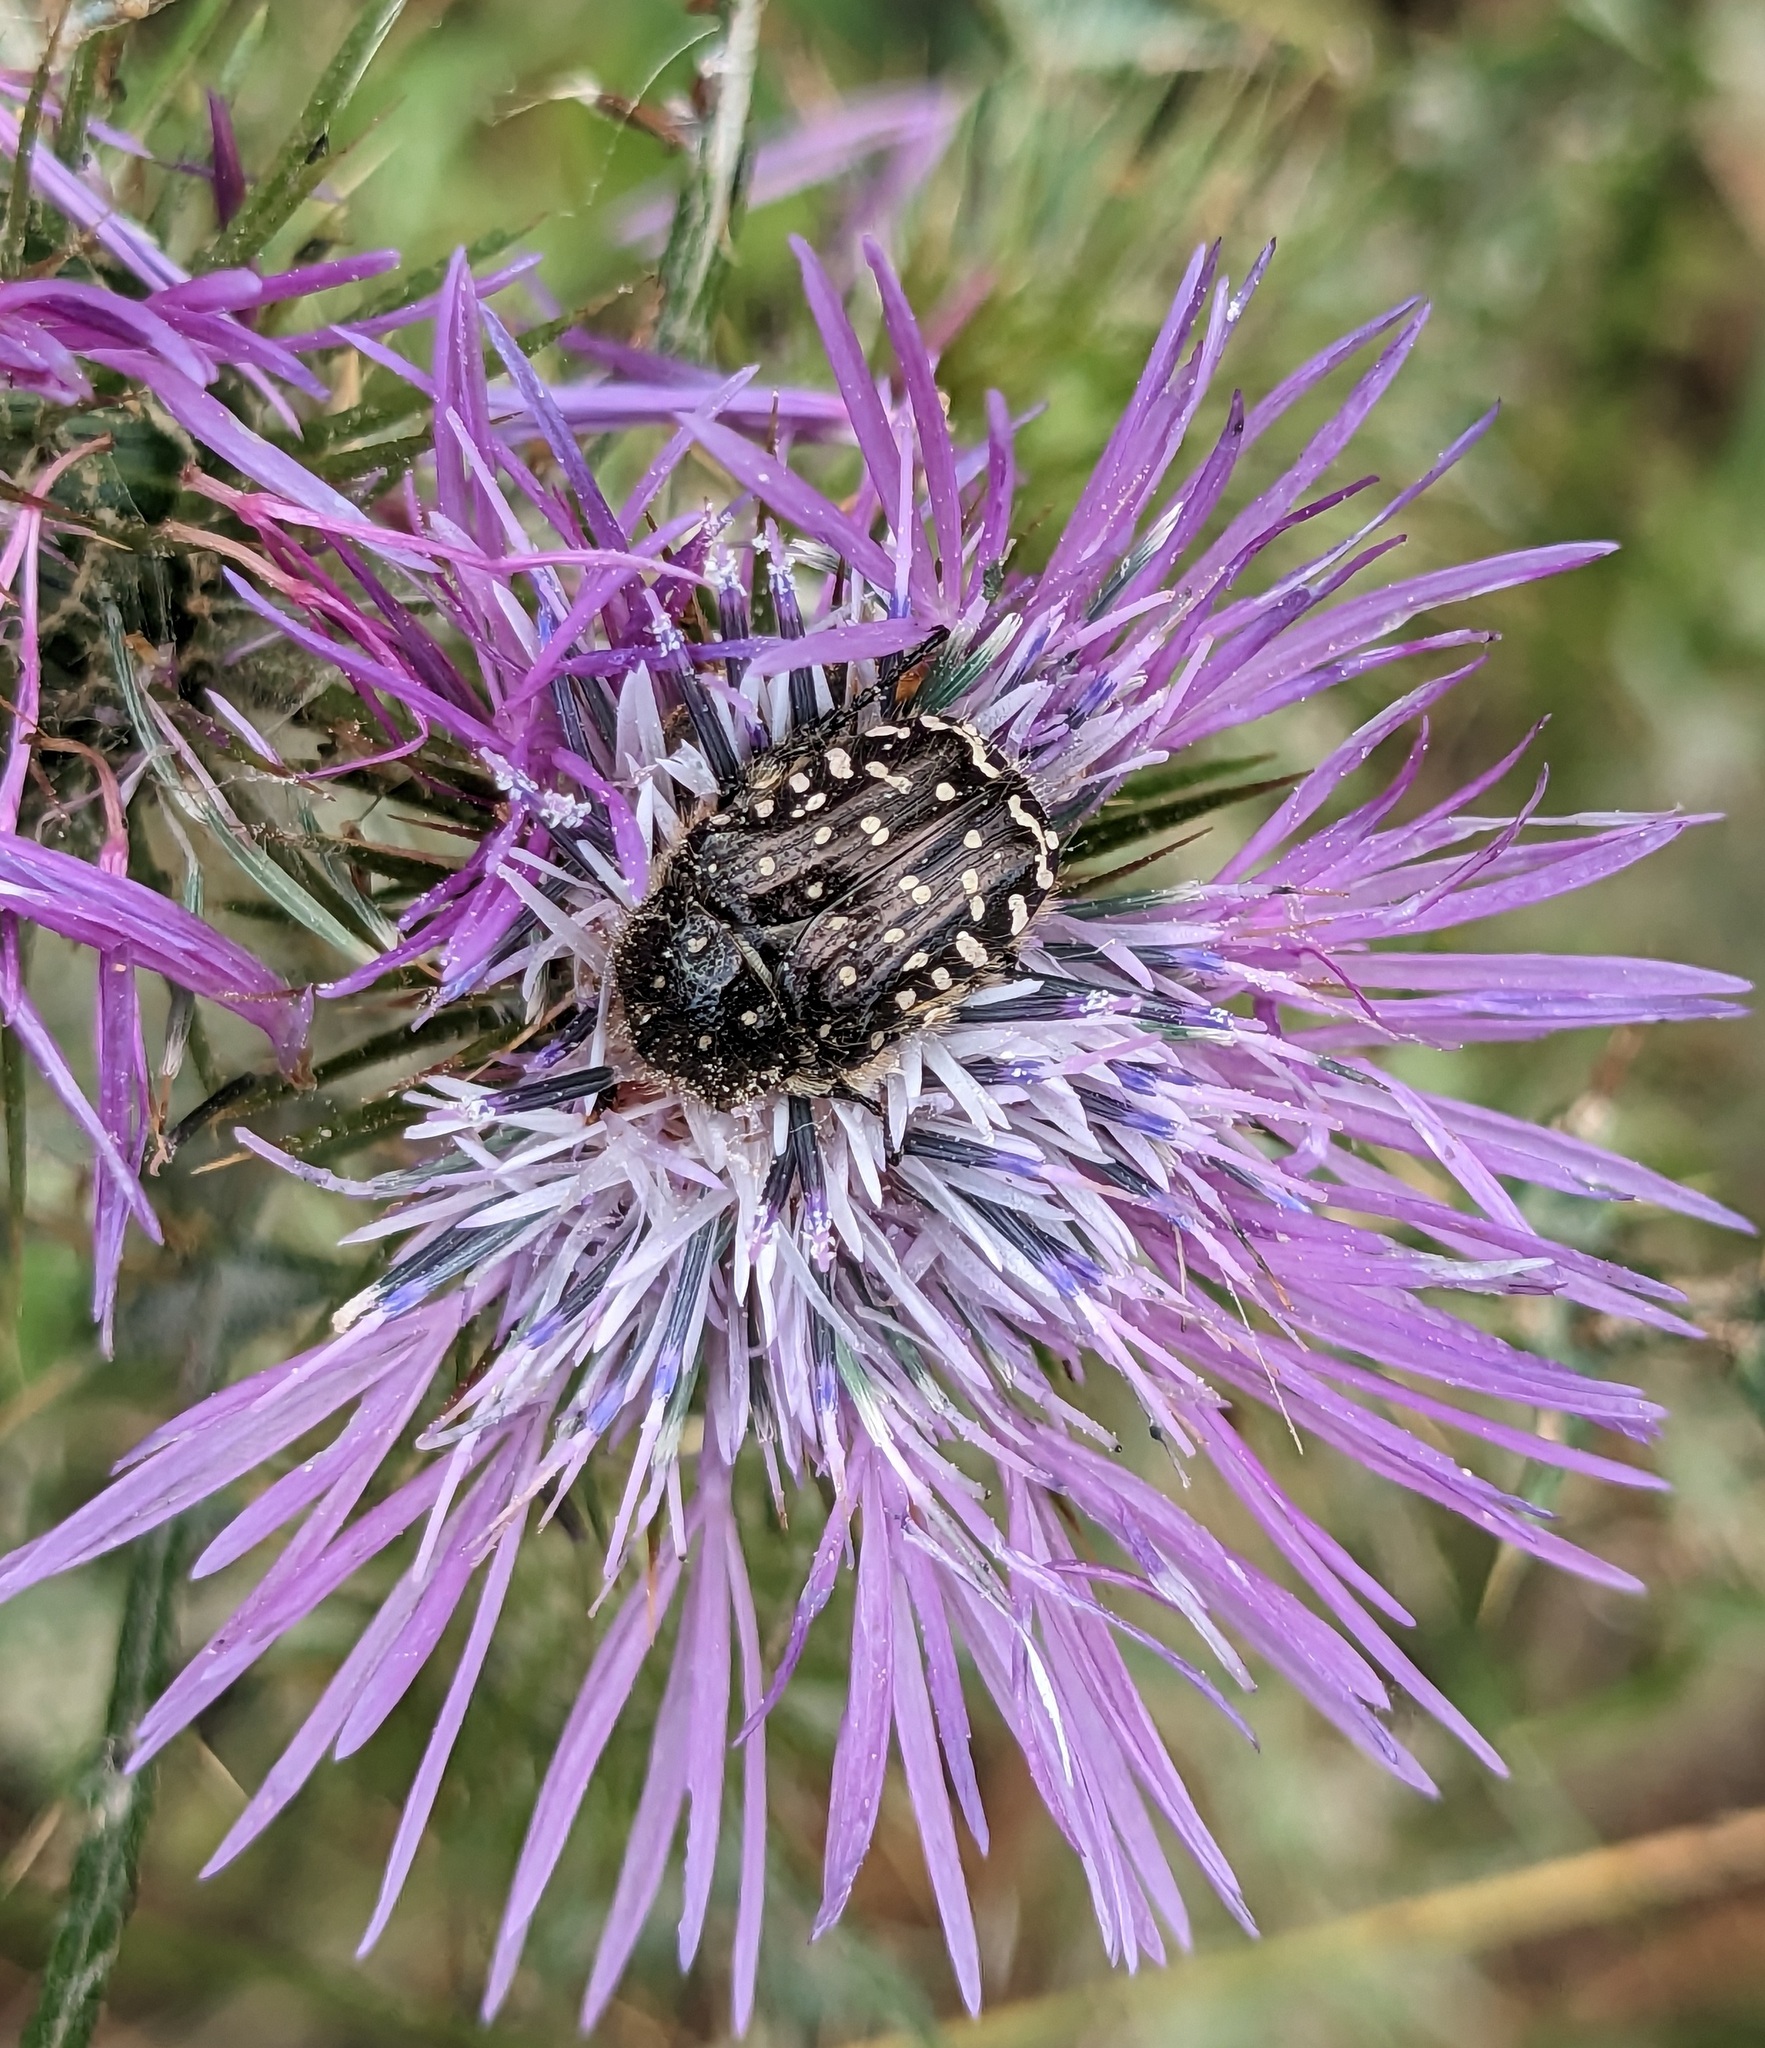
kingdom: Animalia
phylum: Arthropoda
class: Insecta
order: Coleoptera
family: Scarabaeidae
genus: Oxythyrea
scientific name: Oxythyrea funesta
